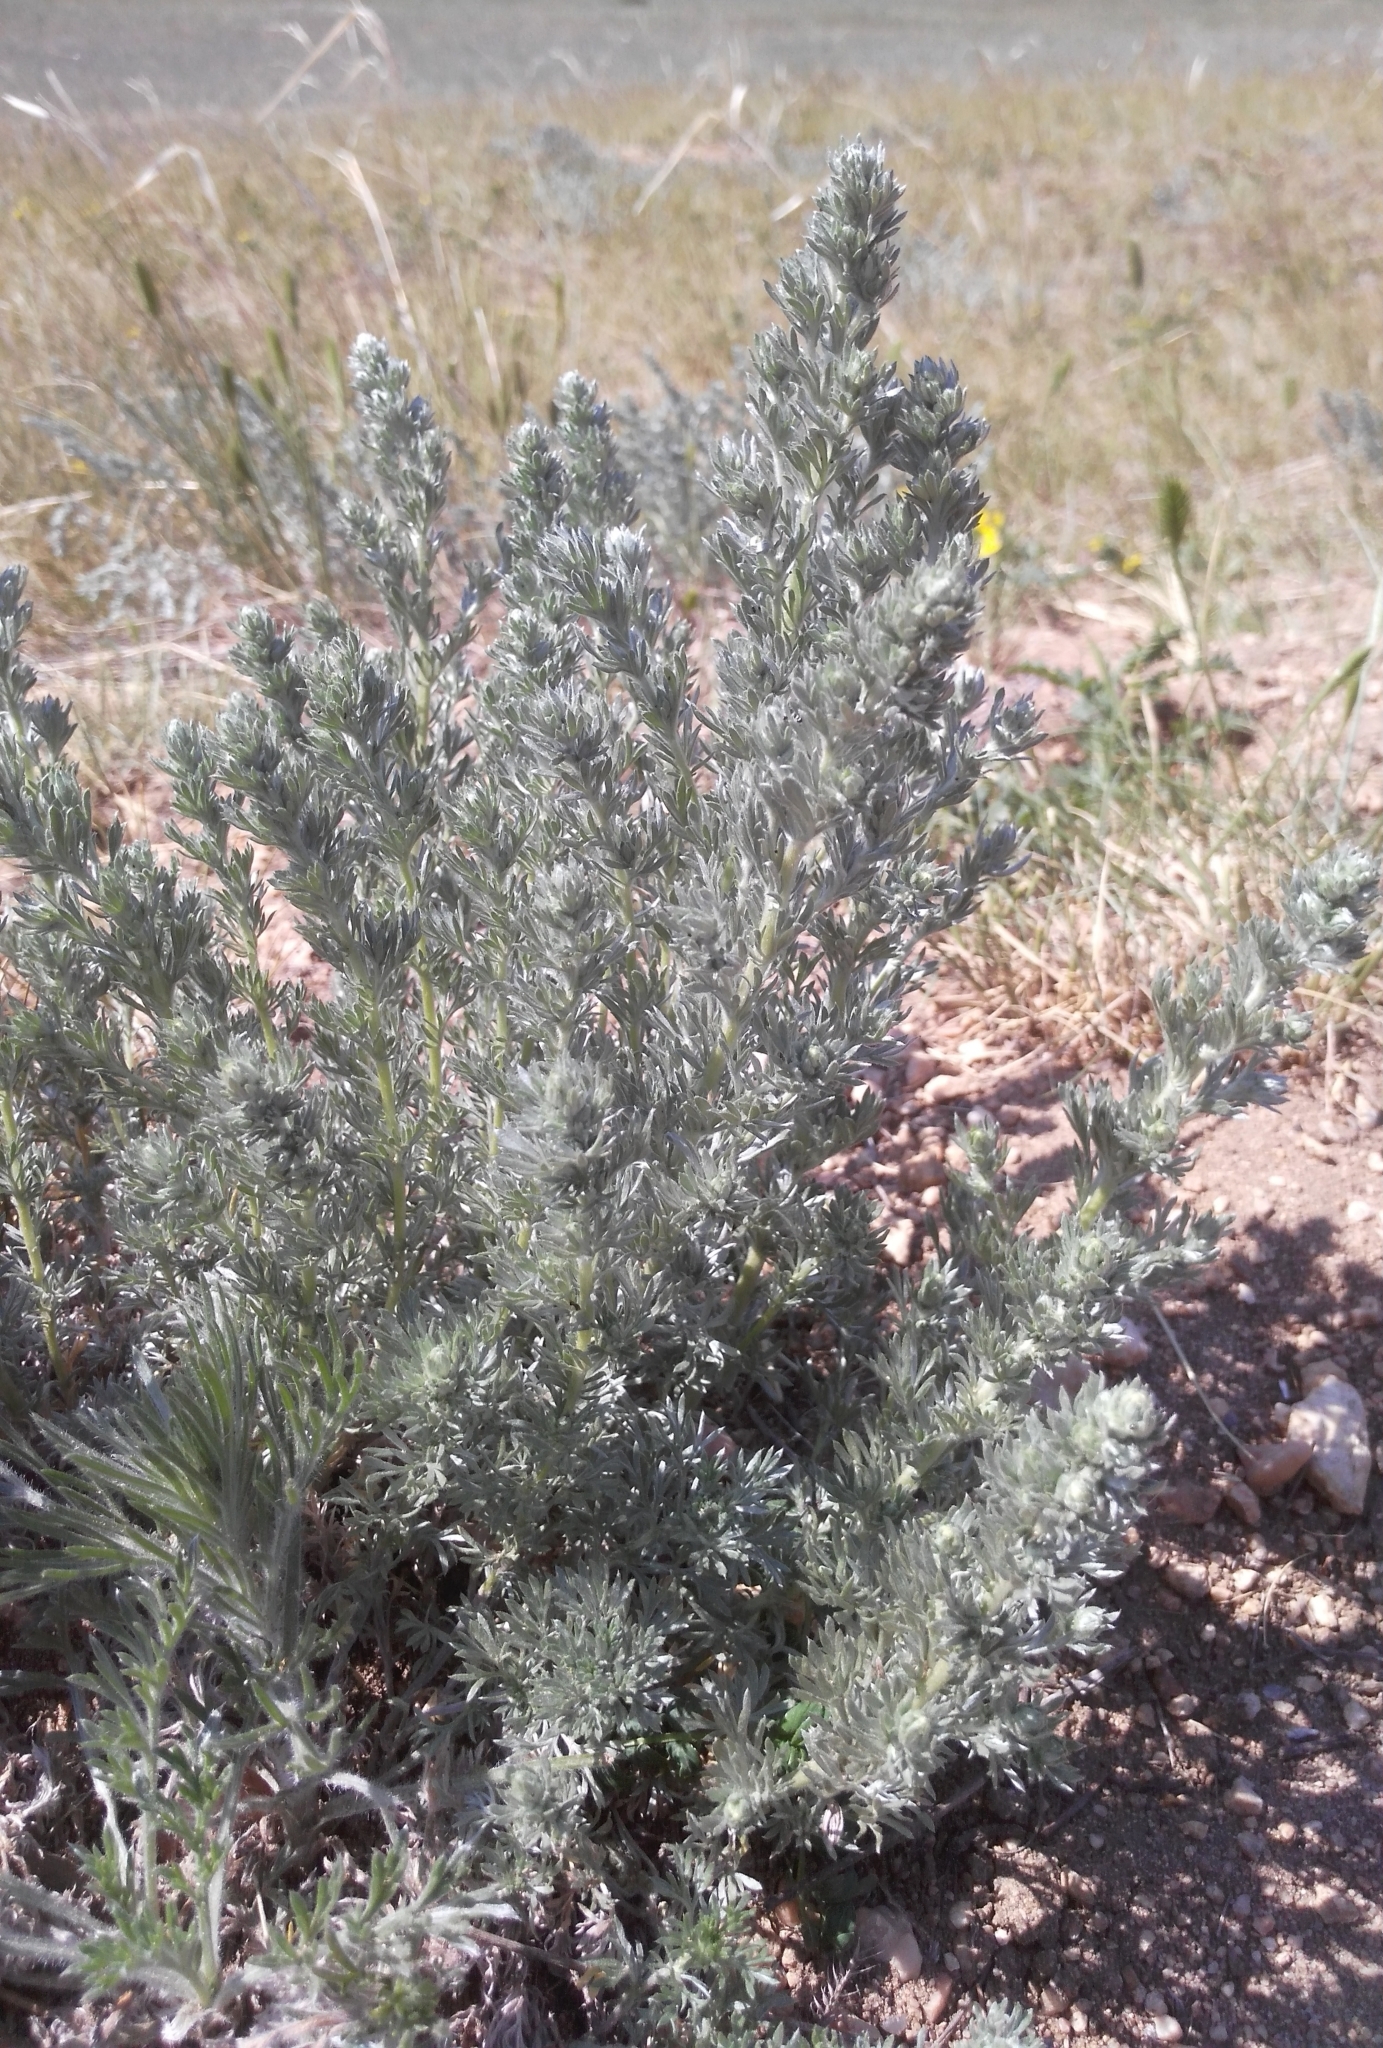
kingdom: Plantae
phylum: Tracheophyta
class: Magnoliopsida
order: Asterales
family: Asteraceae
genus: Artemisia
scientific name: Artemisia frigida
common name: Prairie sagewort
